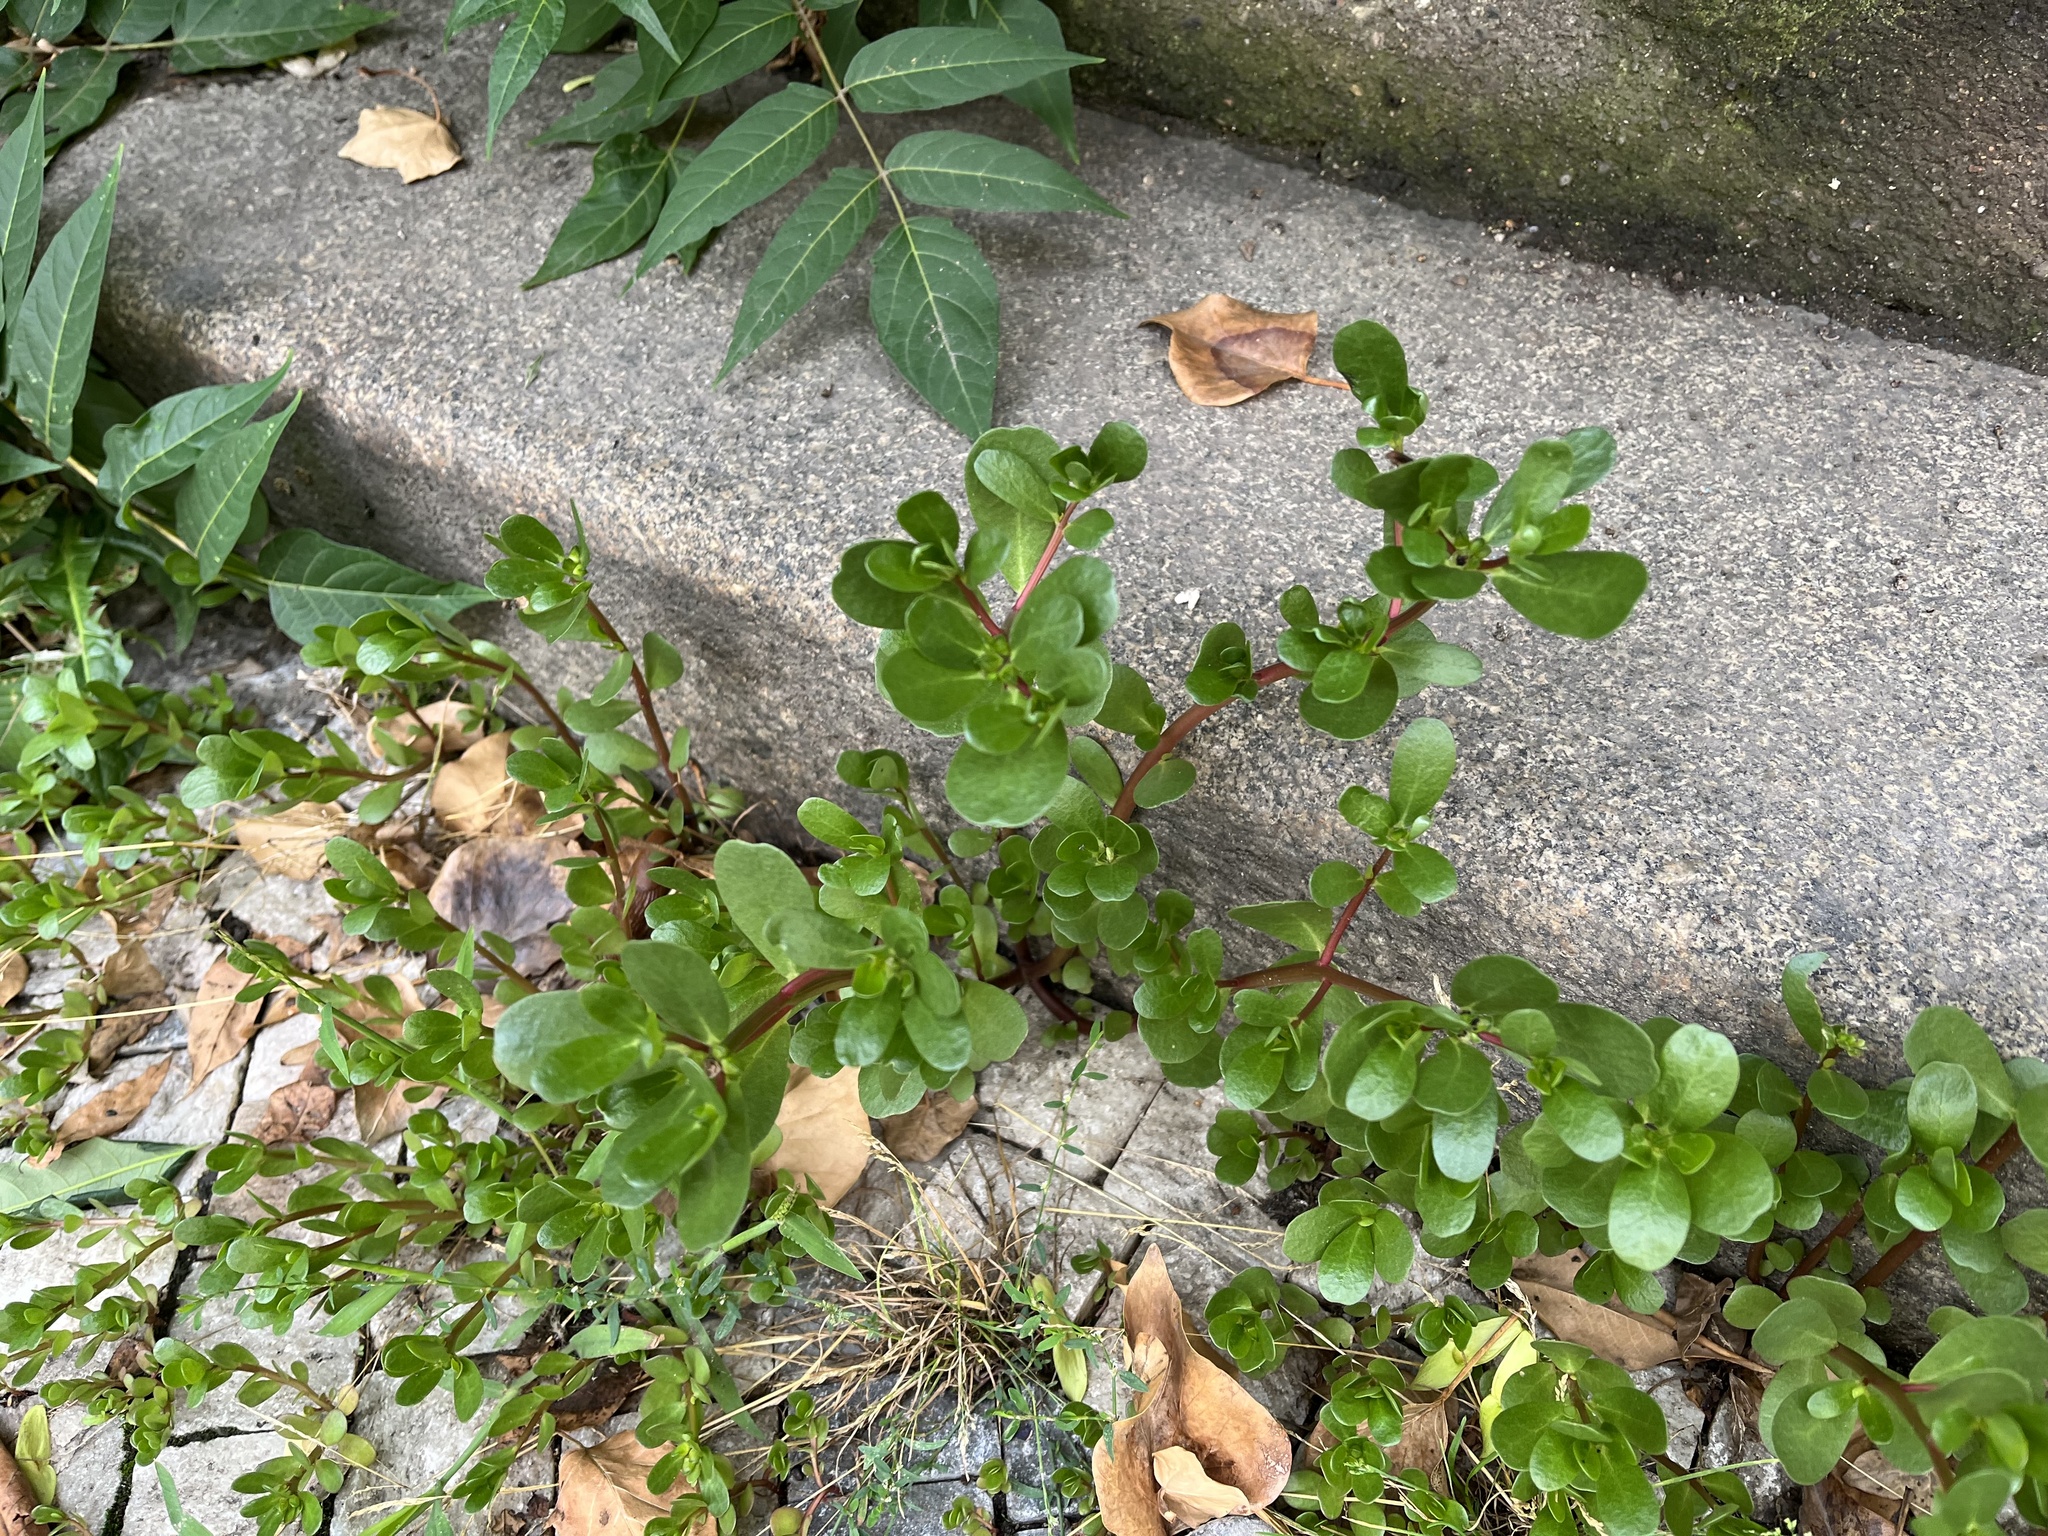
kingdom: Plantae
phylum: Tracheophyta
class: Magnoliopsida
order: Caryophyllales
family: Portulacaceae
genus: Portulaca
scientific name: Portulaca oleracea
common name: Common purslane
